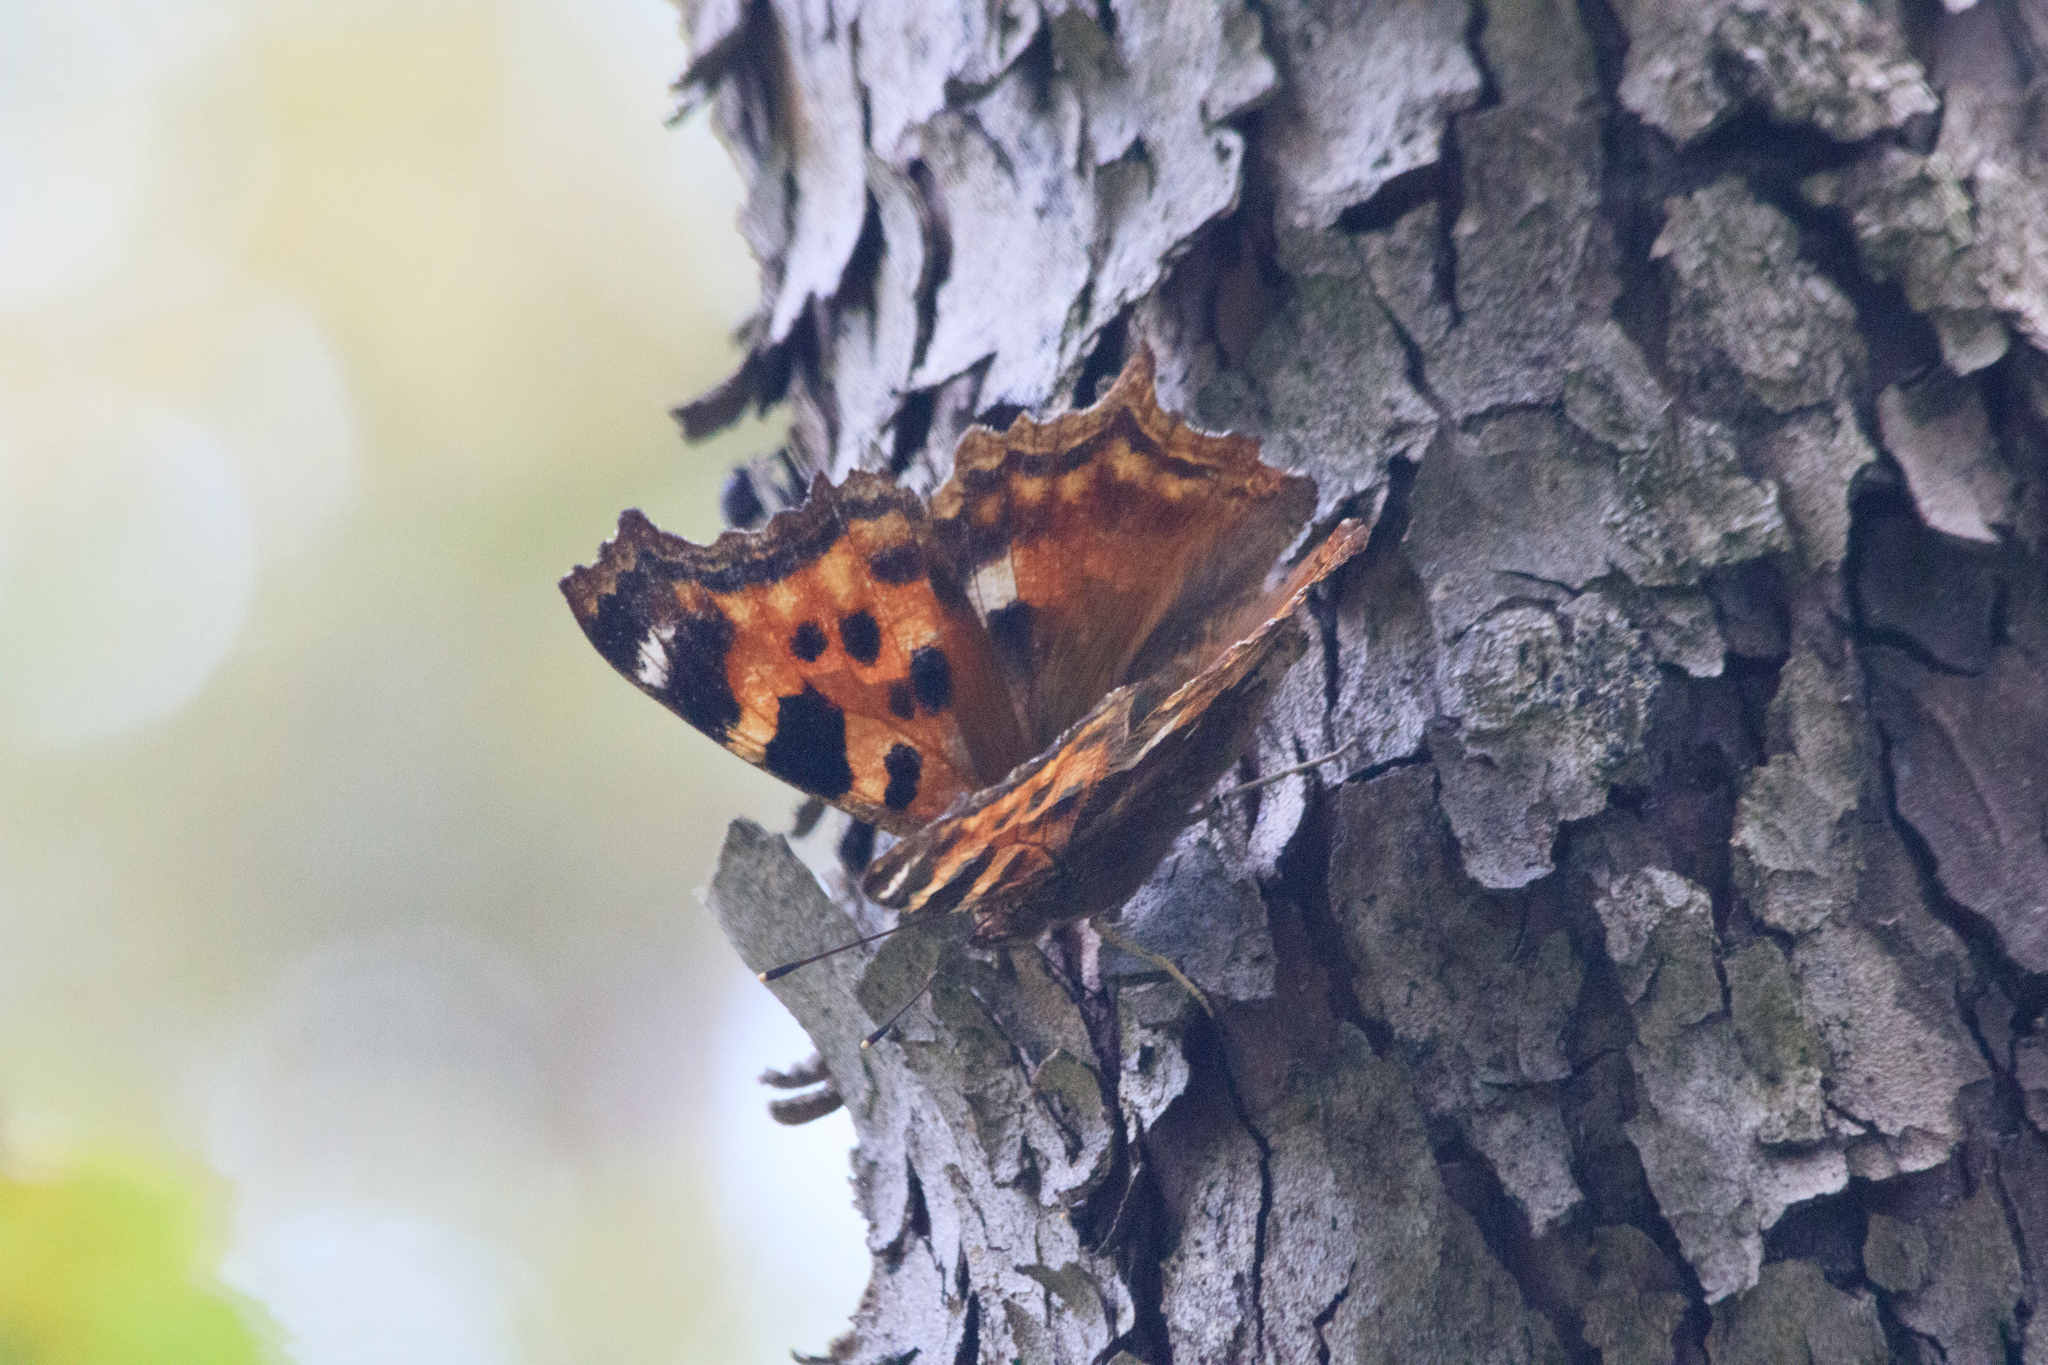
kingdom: Animalia
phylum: Arthropoda
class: Insecta
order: Lepidoptera
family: Nymphalidae
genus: Polygonia
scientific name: Polygonia vaualbum
